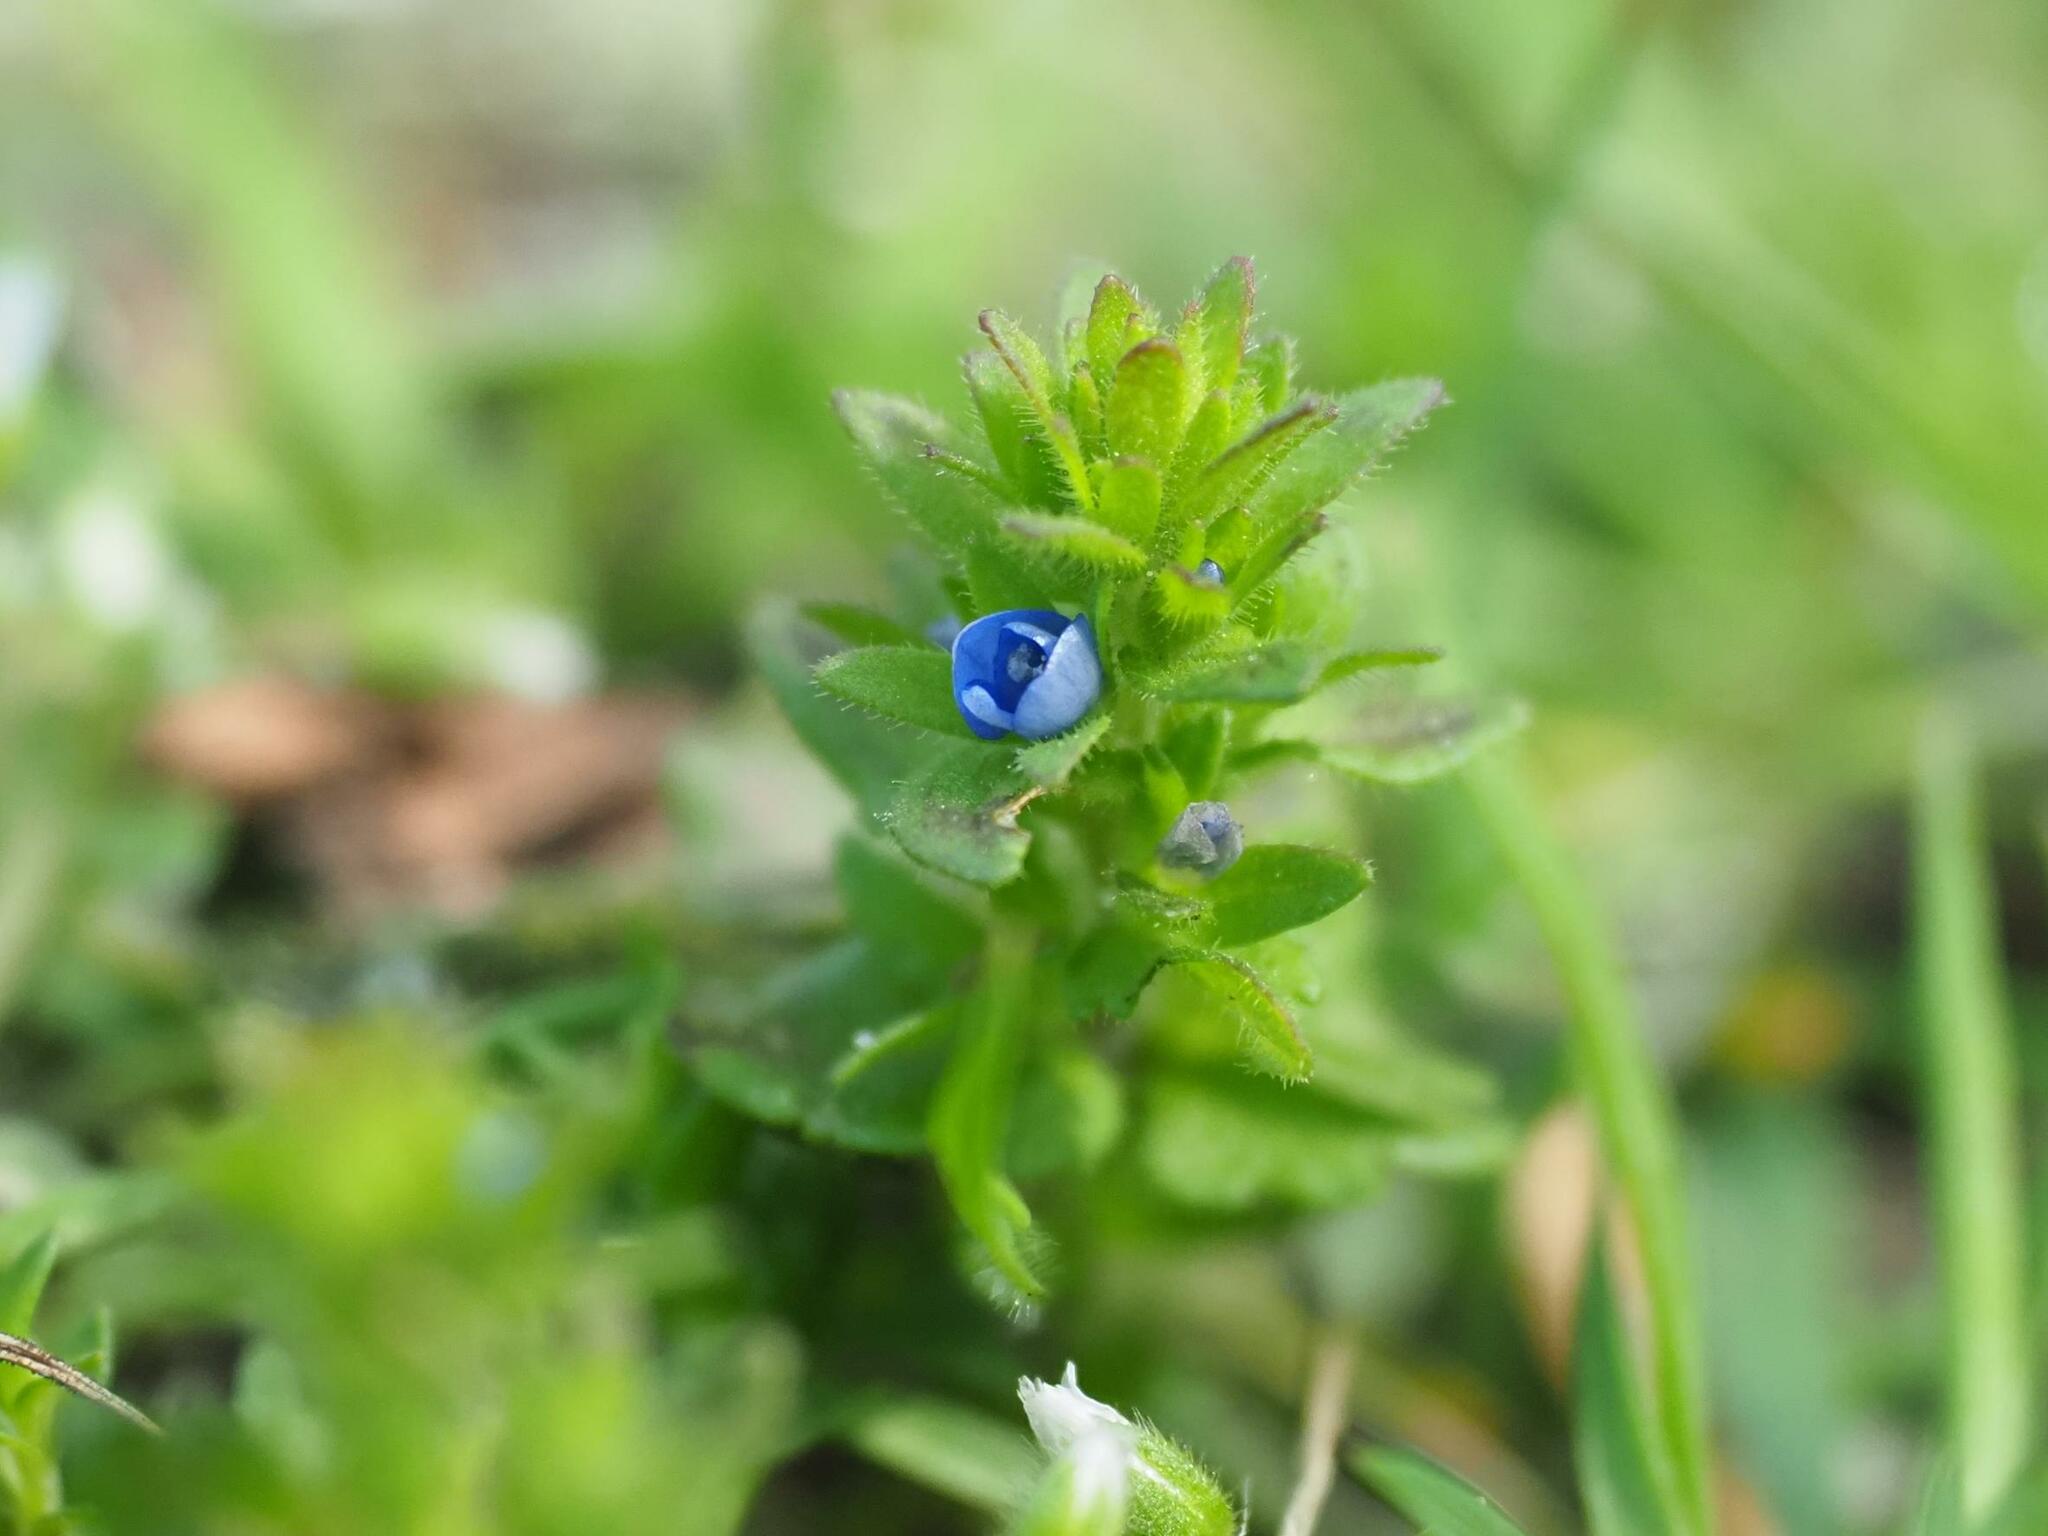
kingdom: Plantae
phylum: Tracheophyta
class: Magnoliopsida
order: Lamiales
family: Plantaginaceae
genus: Veronica
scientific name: Veronica arvensis
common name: Corn speedwell
